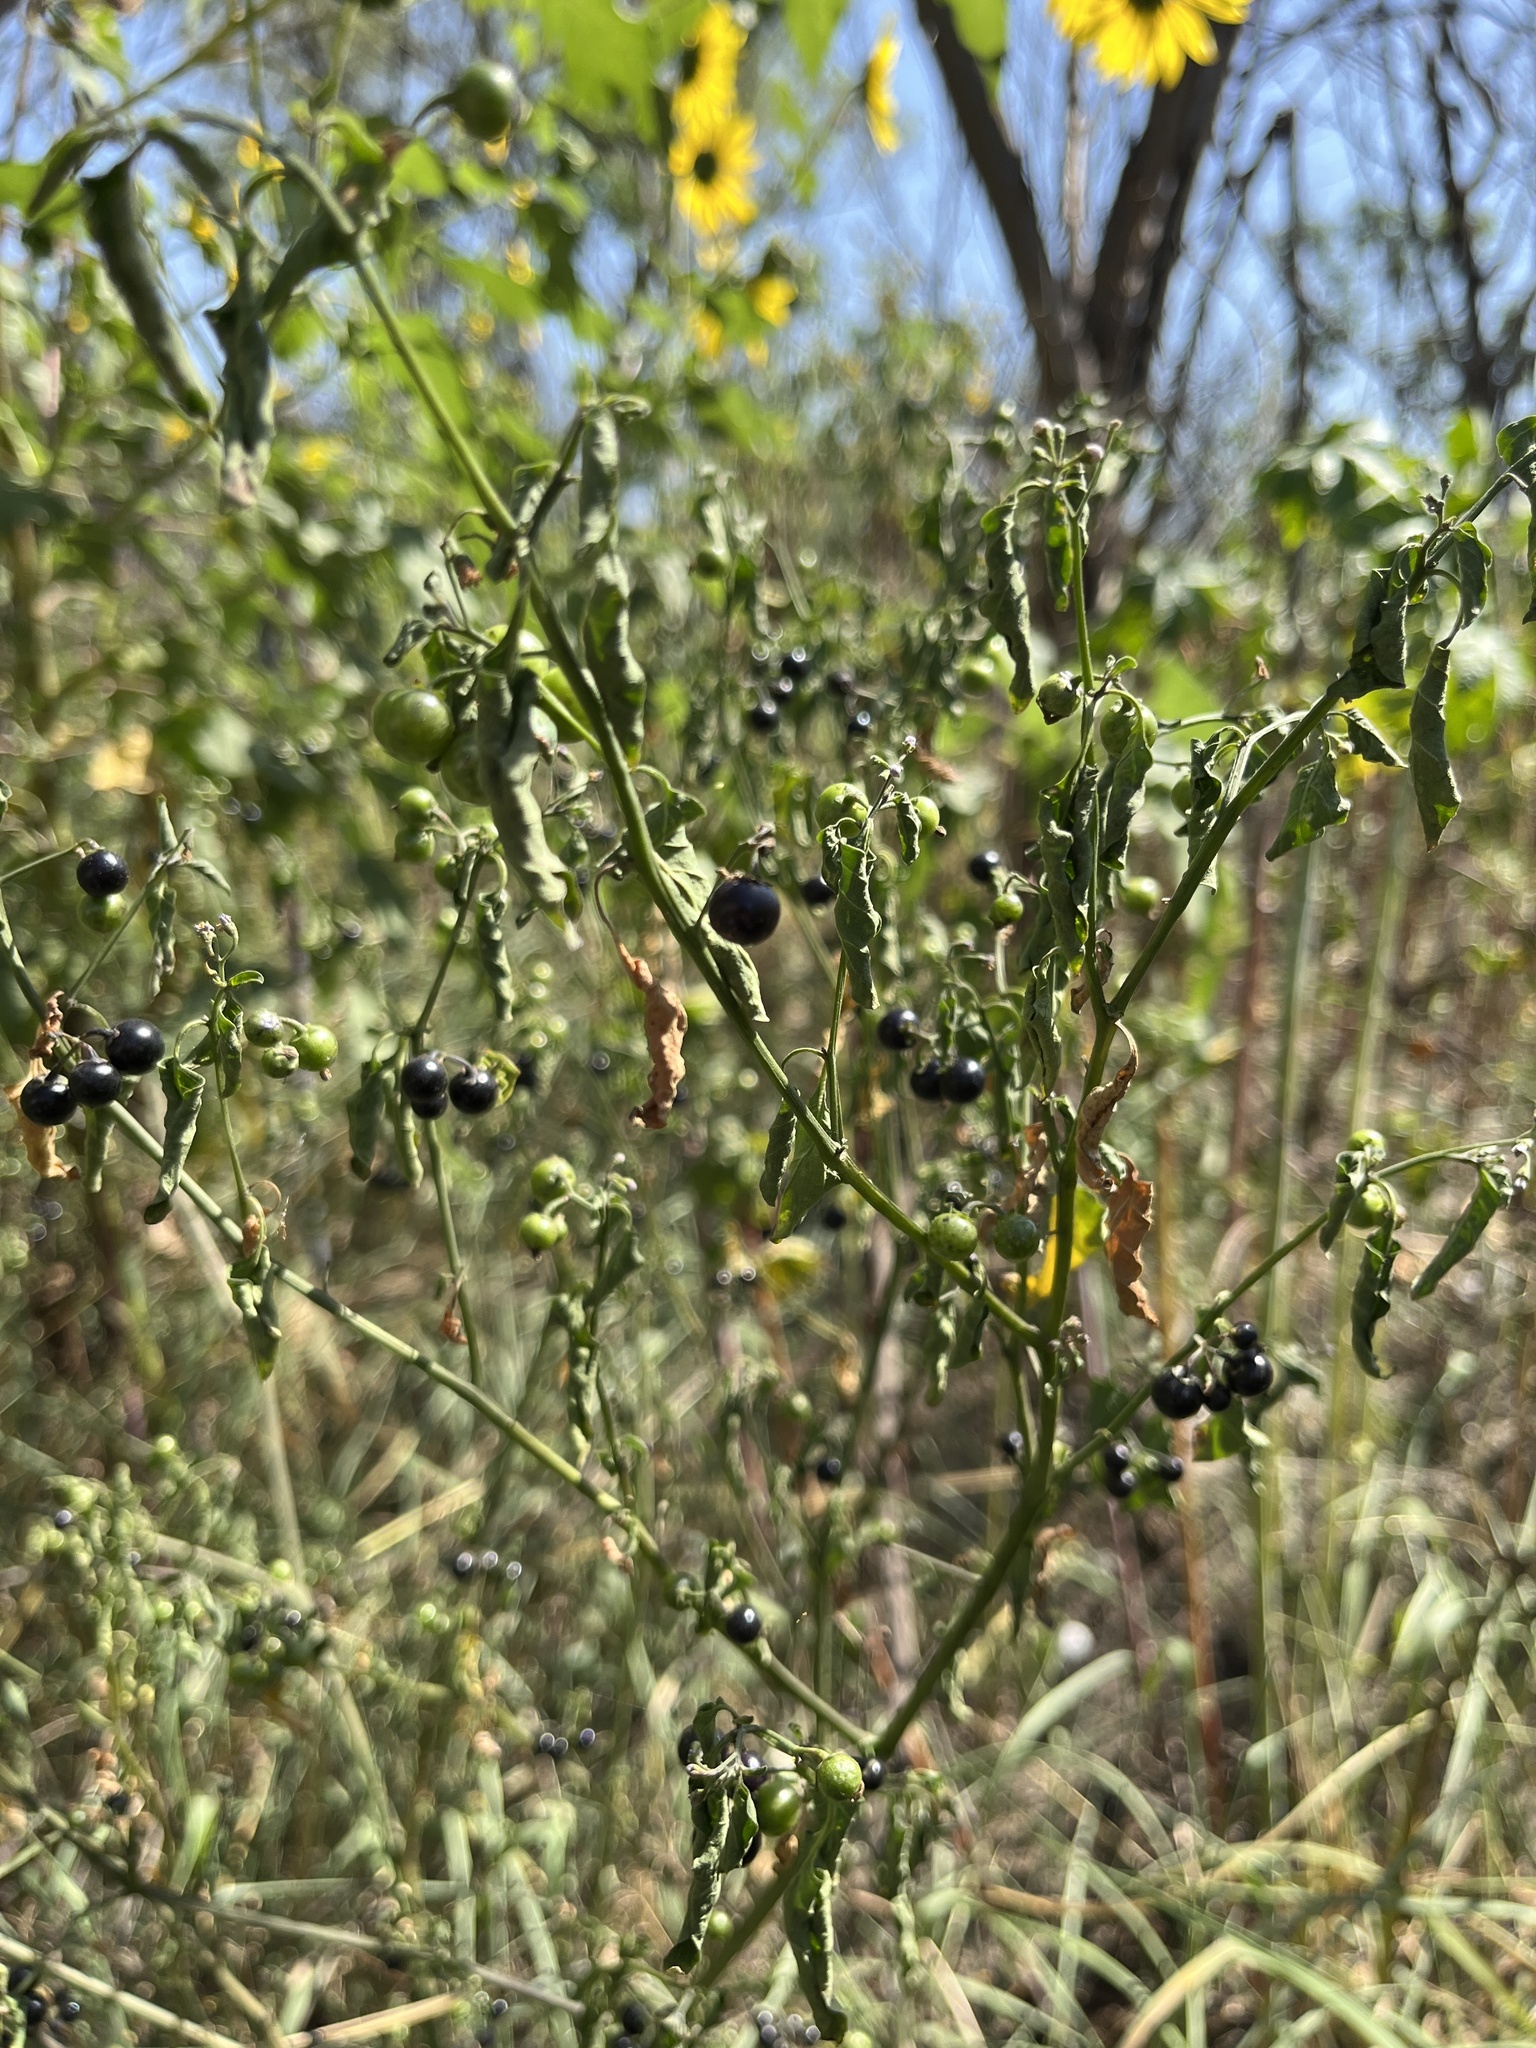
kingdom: Plantae
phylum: Tracheophyta
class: Magnoliopsida
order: Solanales
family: Solanaceae
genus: Solanum
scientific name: Solanum americanum
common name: American black nightshade
